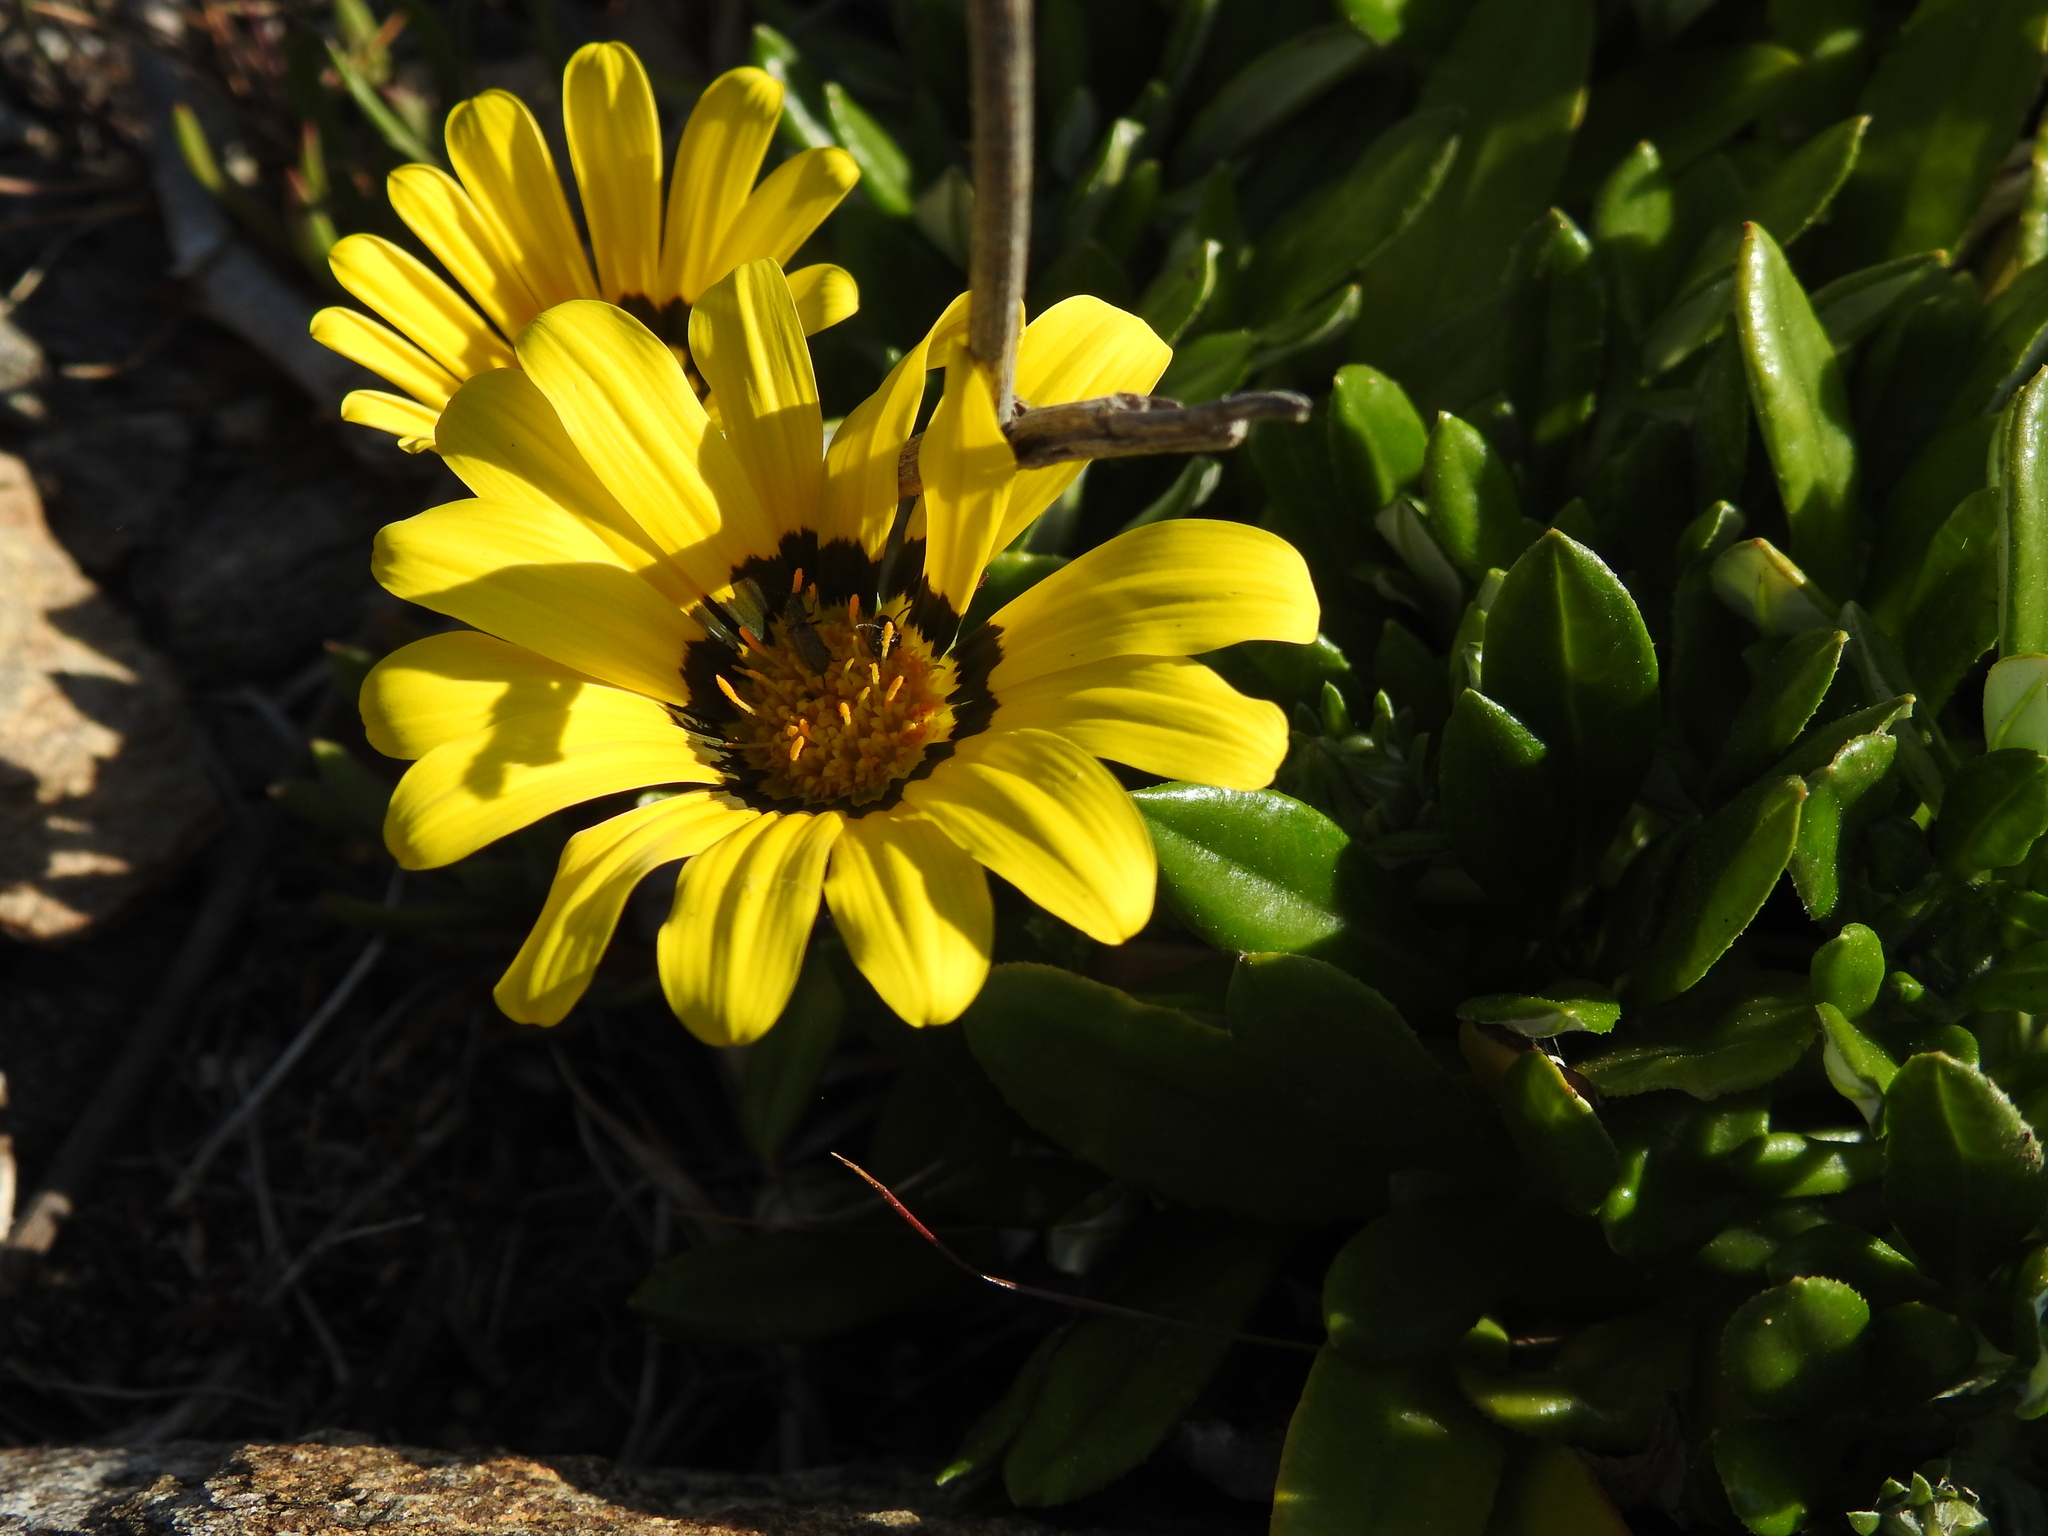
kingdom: Plantae
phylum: Tracheophyta
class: Magnoliopsida
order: Asterales
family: Asteraceae
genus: Gazania
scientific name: Gazania rigens
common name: Treasureflower
